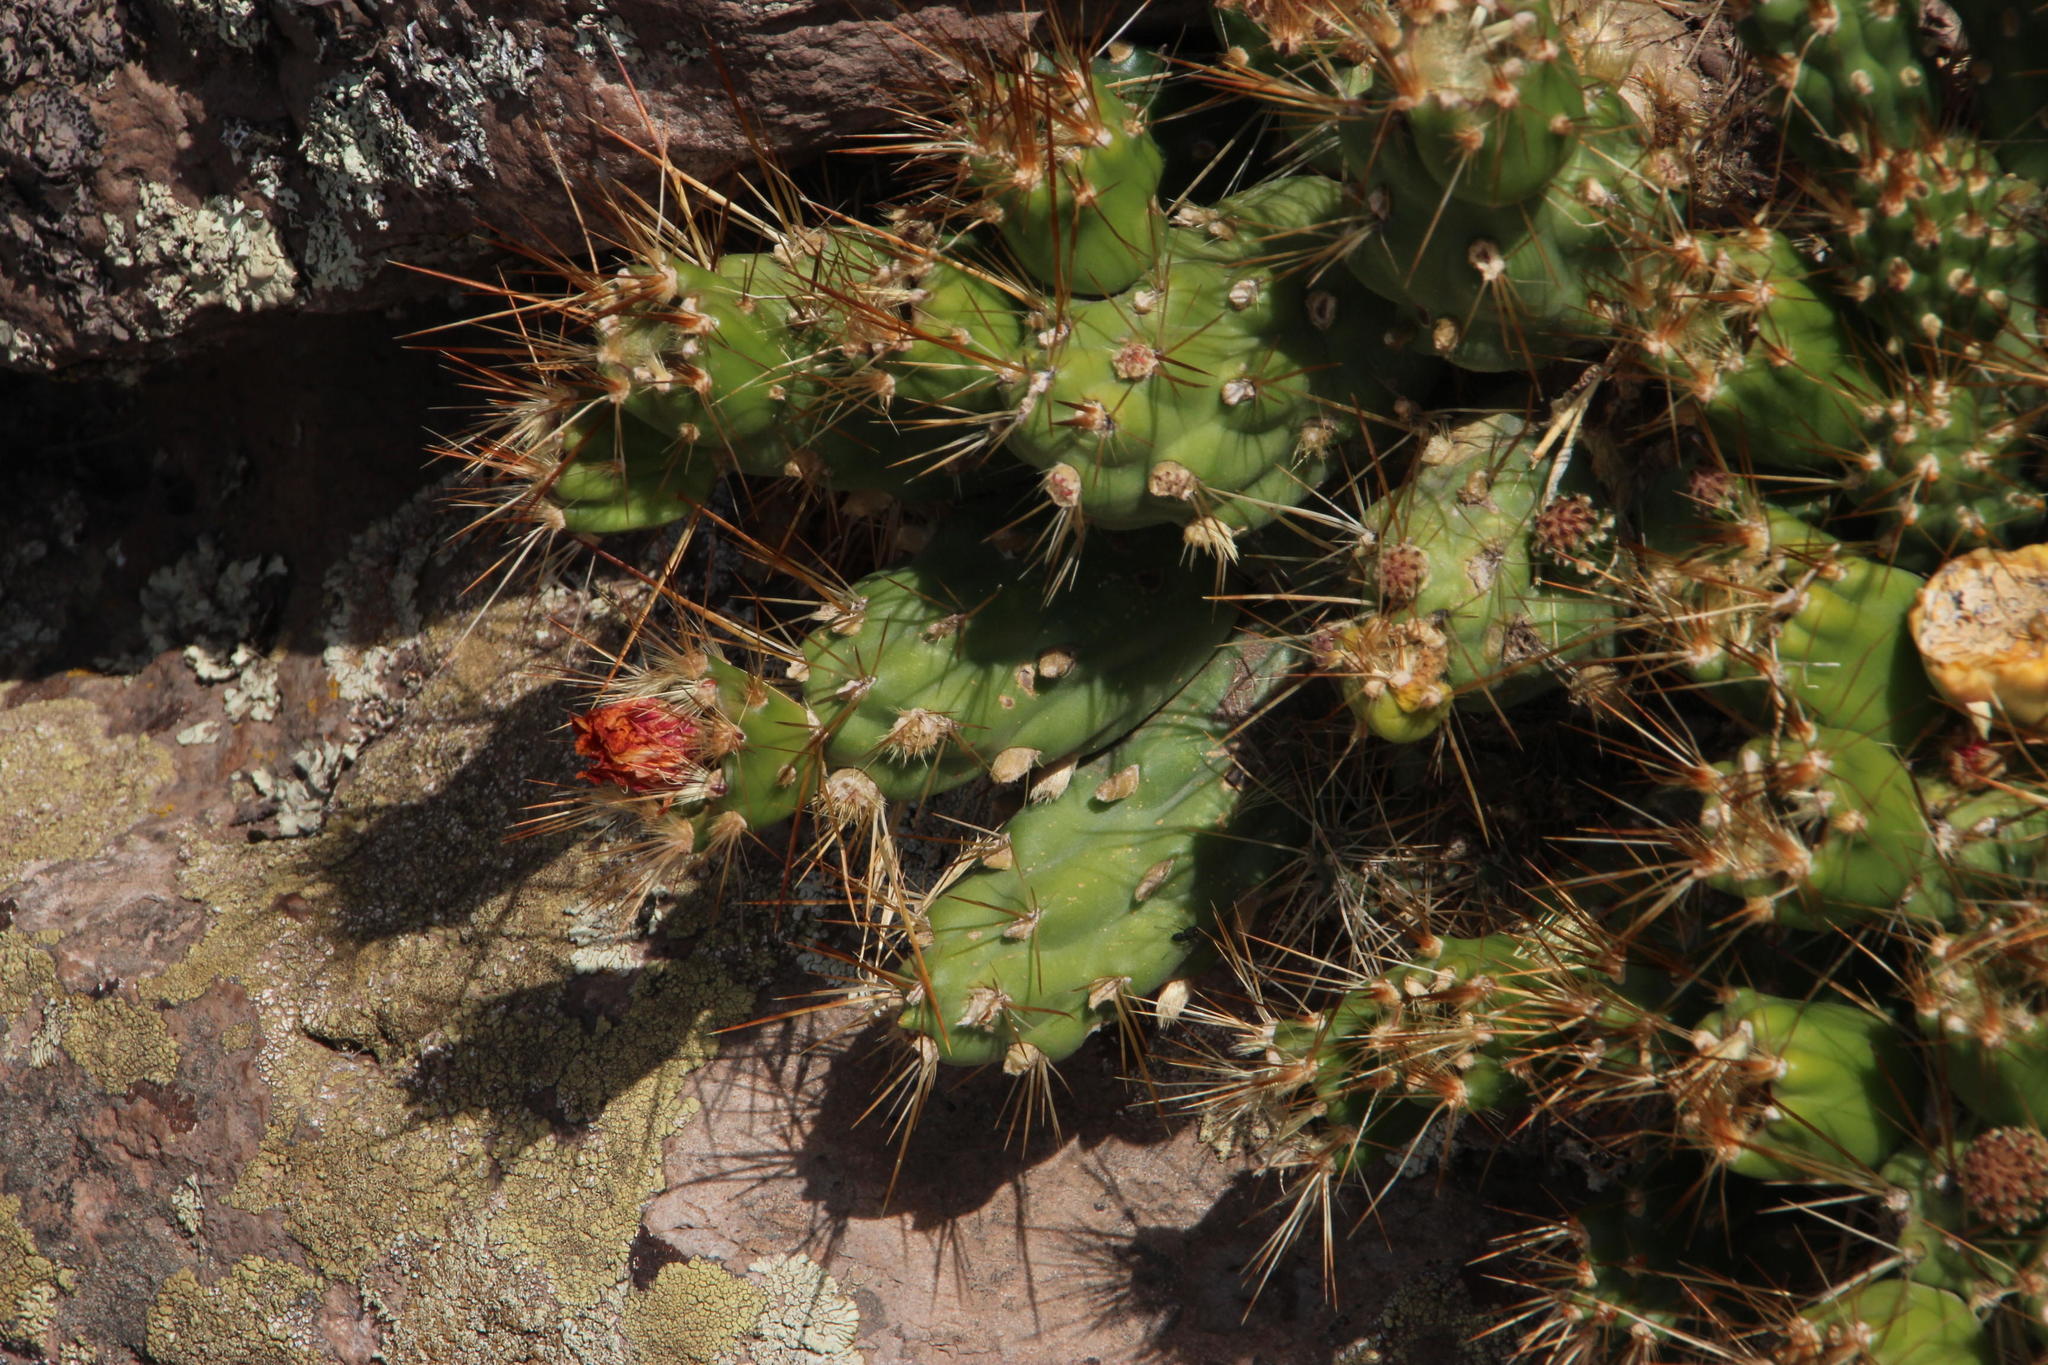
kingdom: Plantae
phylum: Tracheophyta
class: Magnoliopsida
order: Caryophyllales
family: Cactaceae
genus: Cumulopuntia
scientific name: Cumulopuntia boliviana
